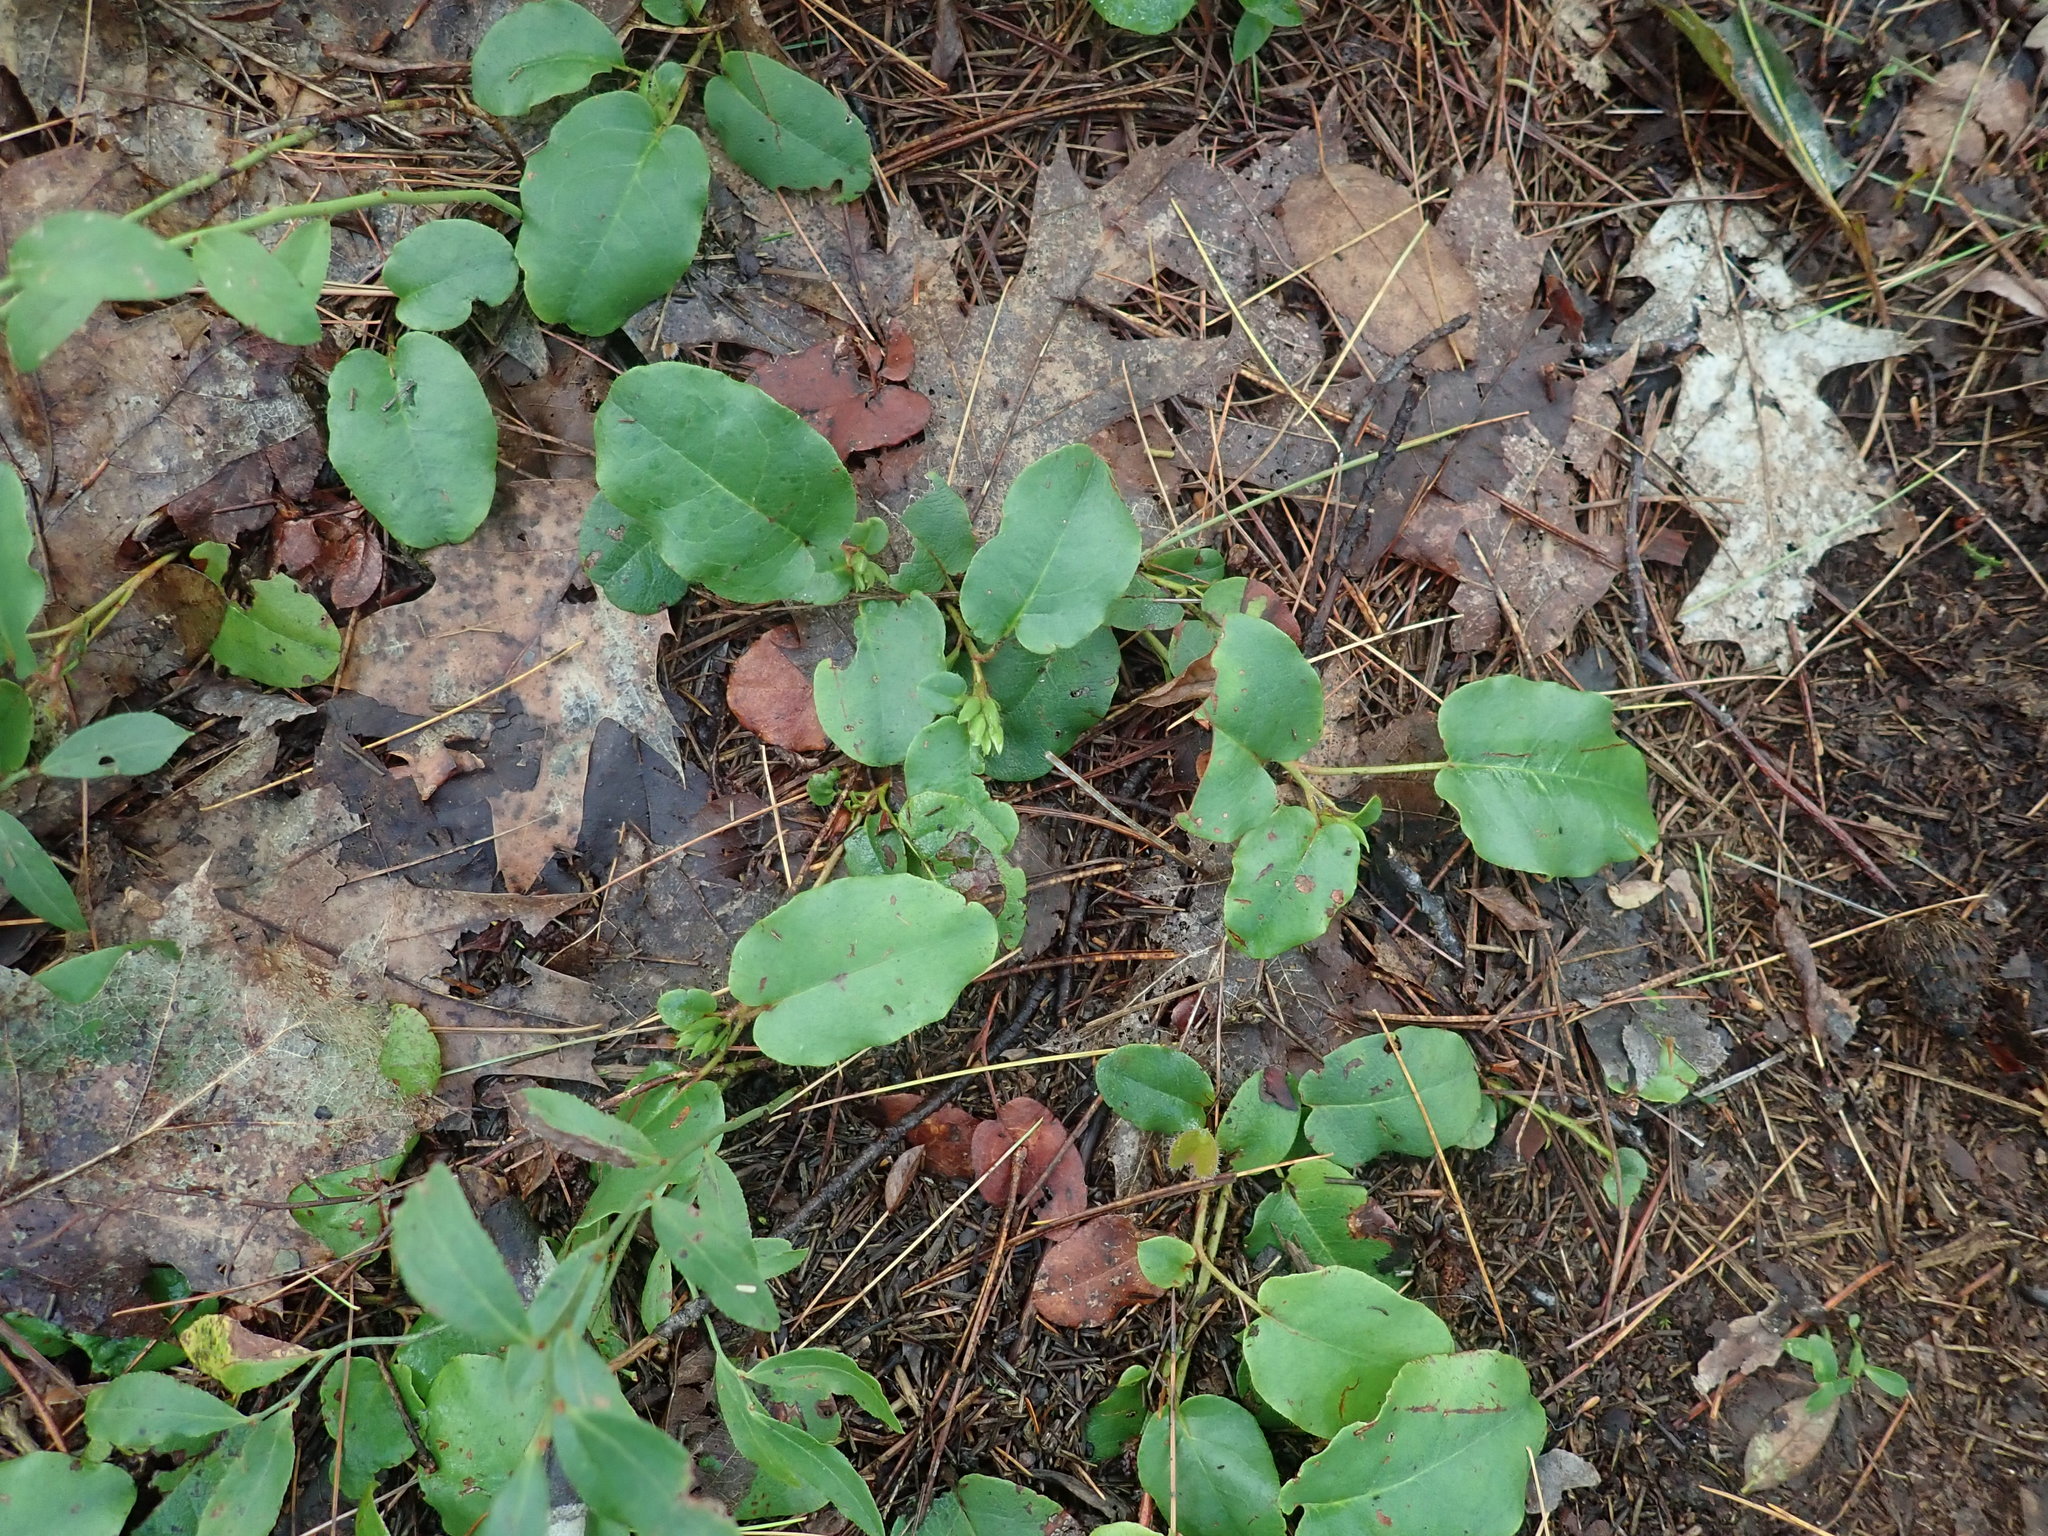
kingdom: Plantae
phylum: Tracheophyta
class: Magnoliopsida
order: Ericales
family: Ericaceae
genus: Epigaea
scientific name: Epigaea repens
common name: Gravelroot
